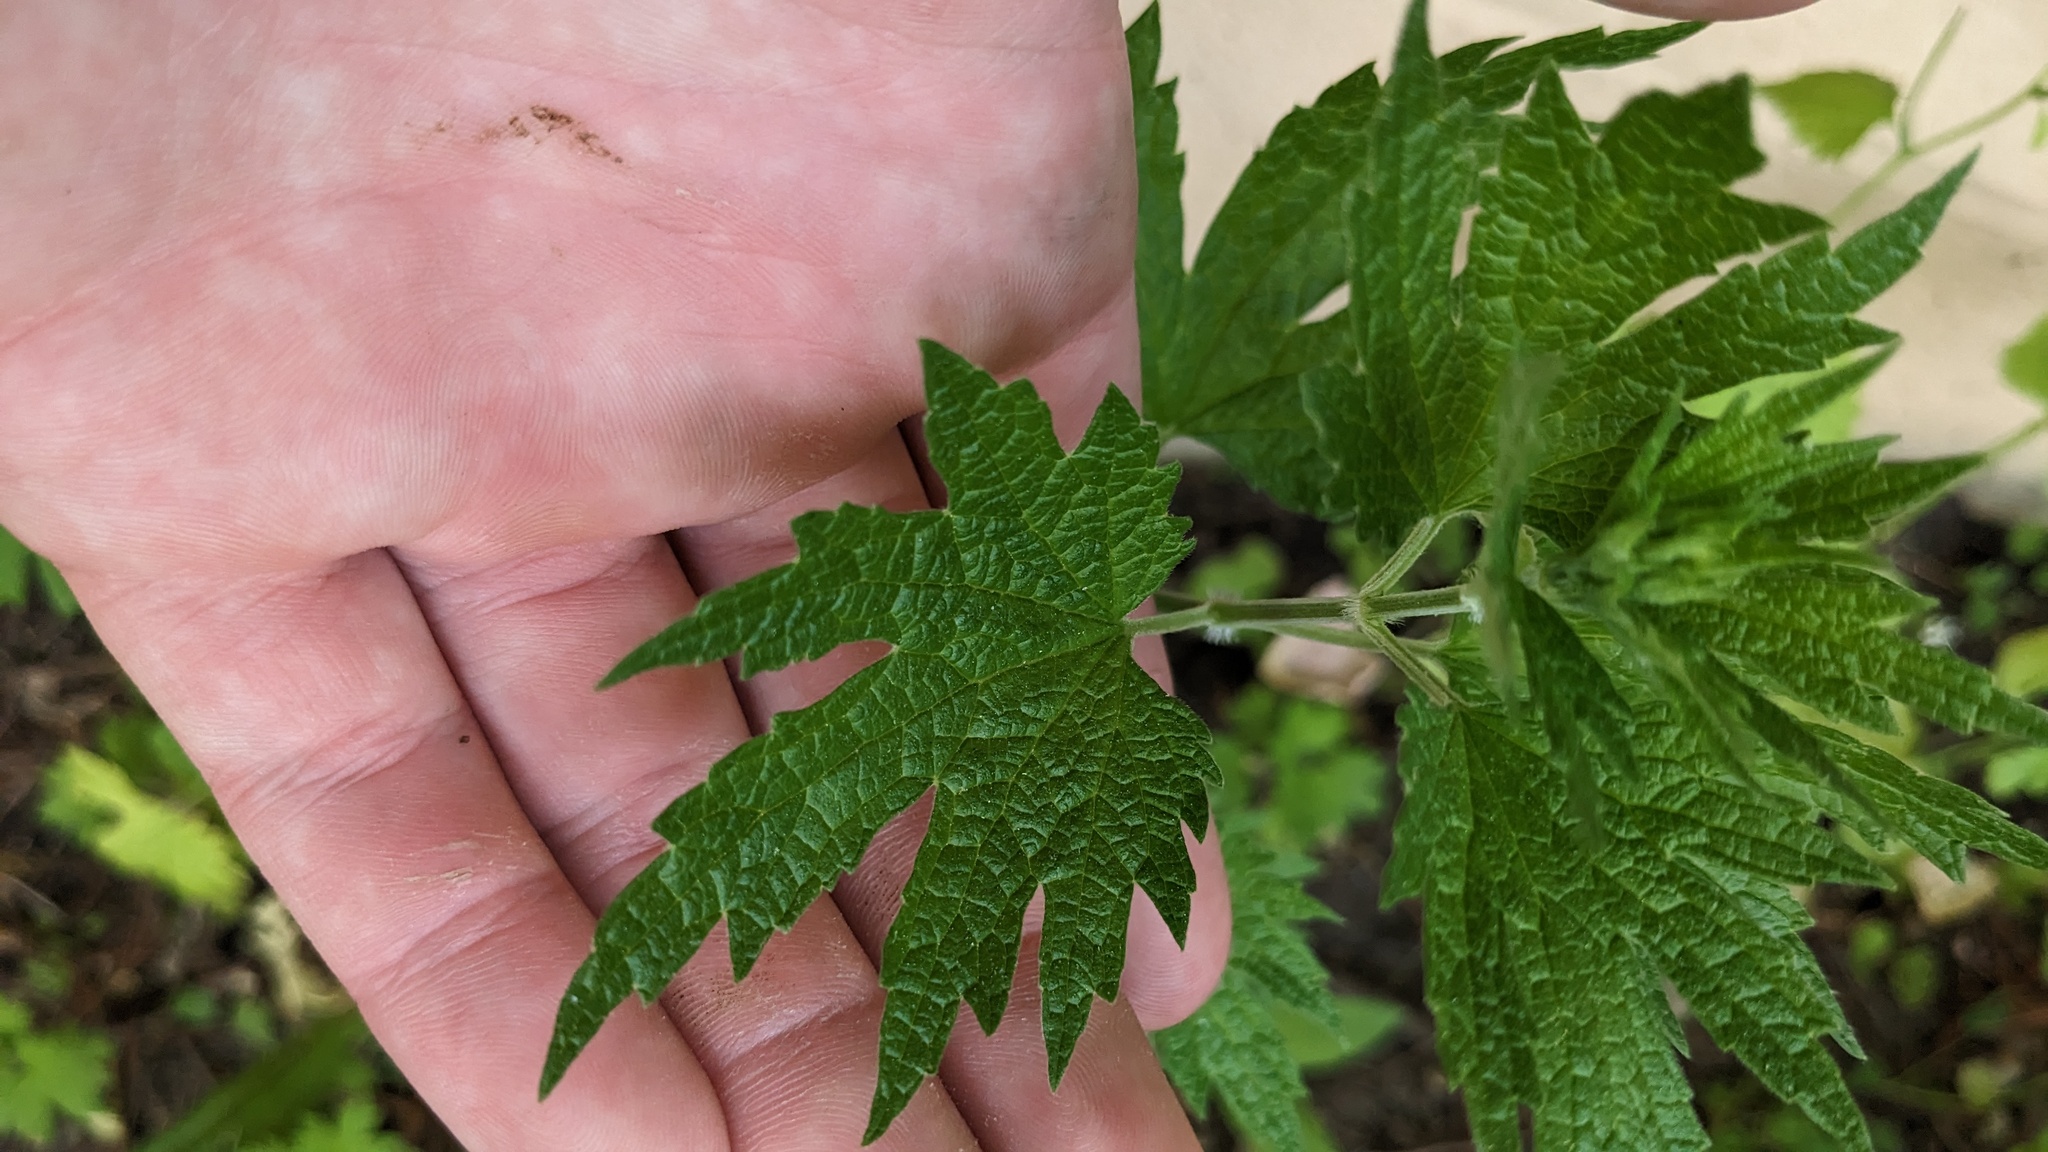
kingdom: Plantae
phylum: Tracheophyta
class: Magnoliopsida
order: Lamiales
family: Lamiaceae
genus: Leonurus
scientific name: Leonurus cardiaca
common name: Motherwort
